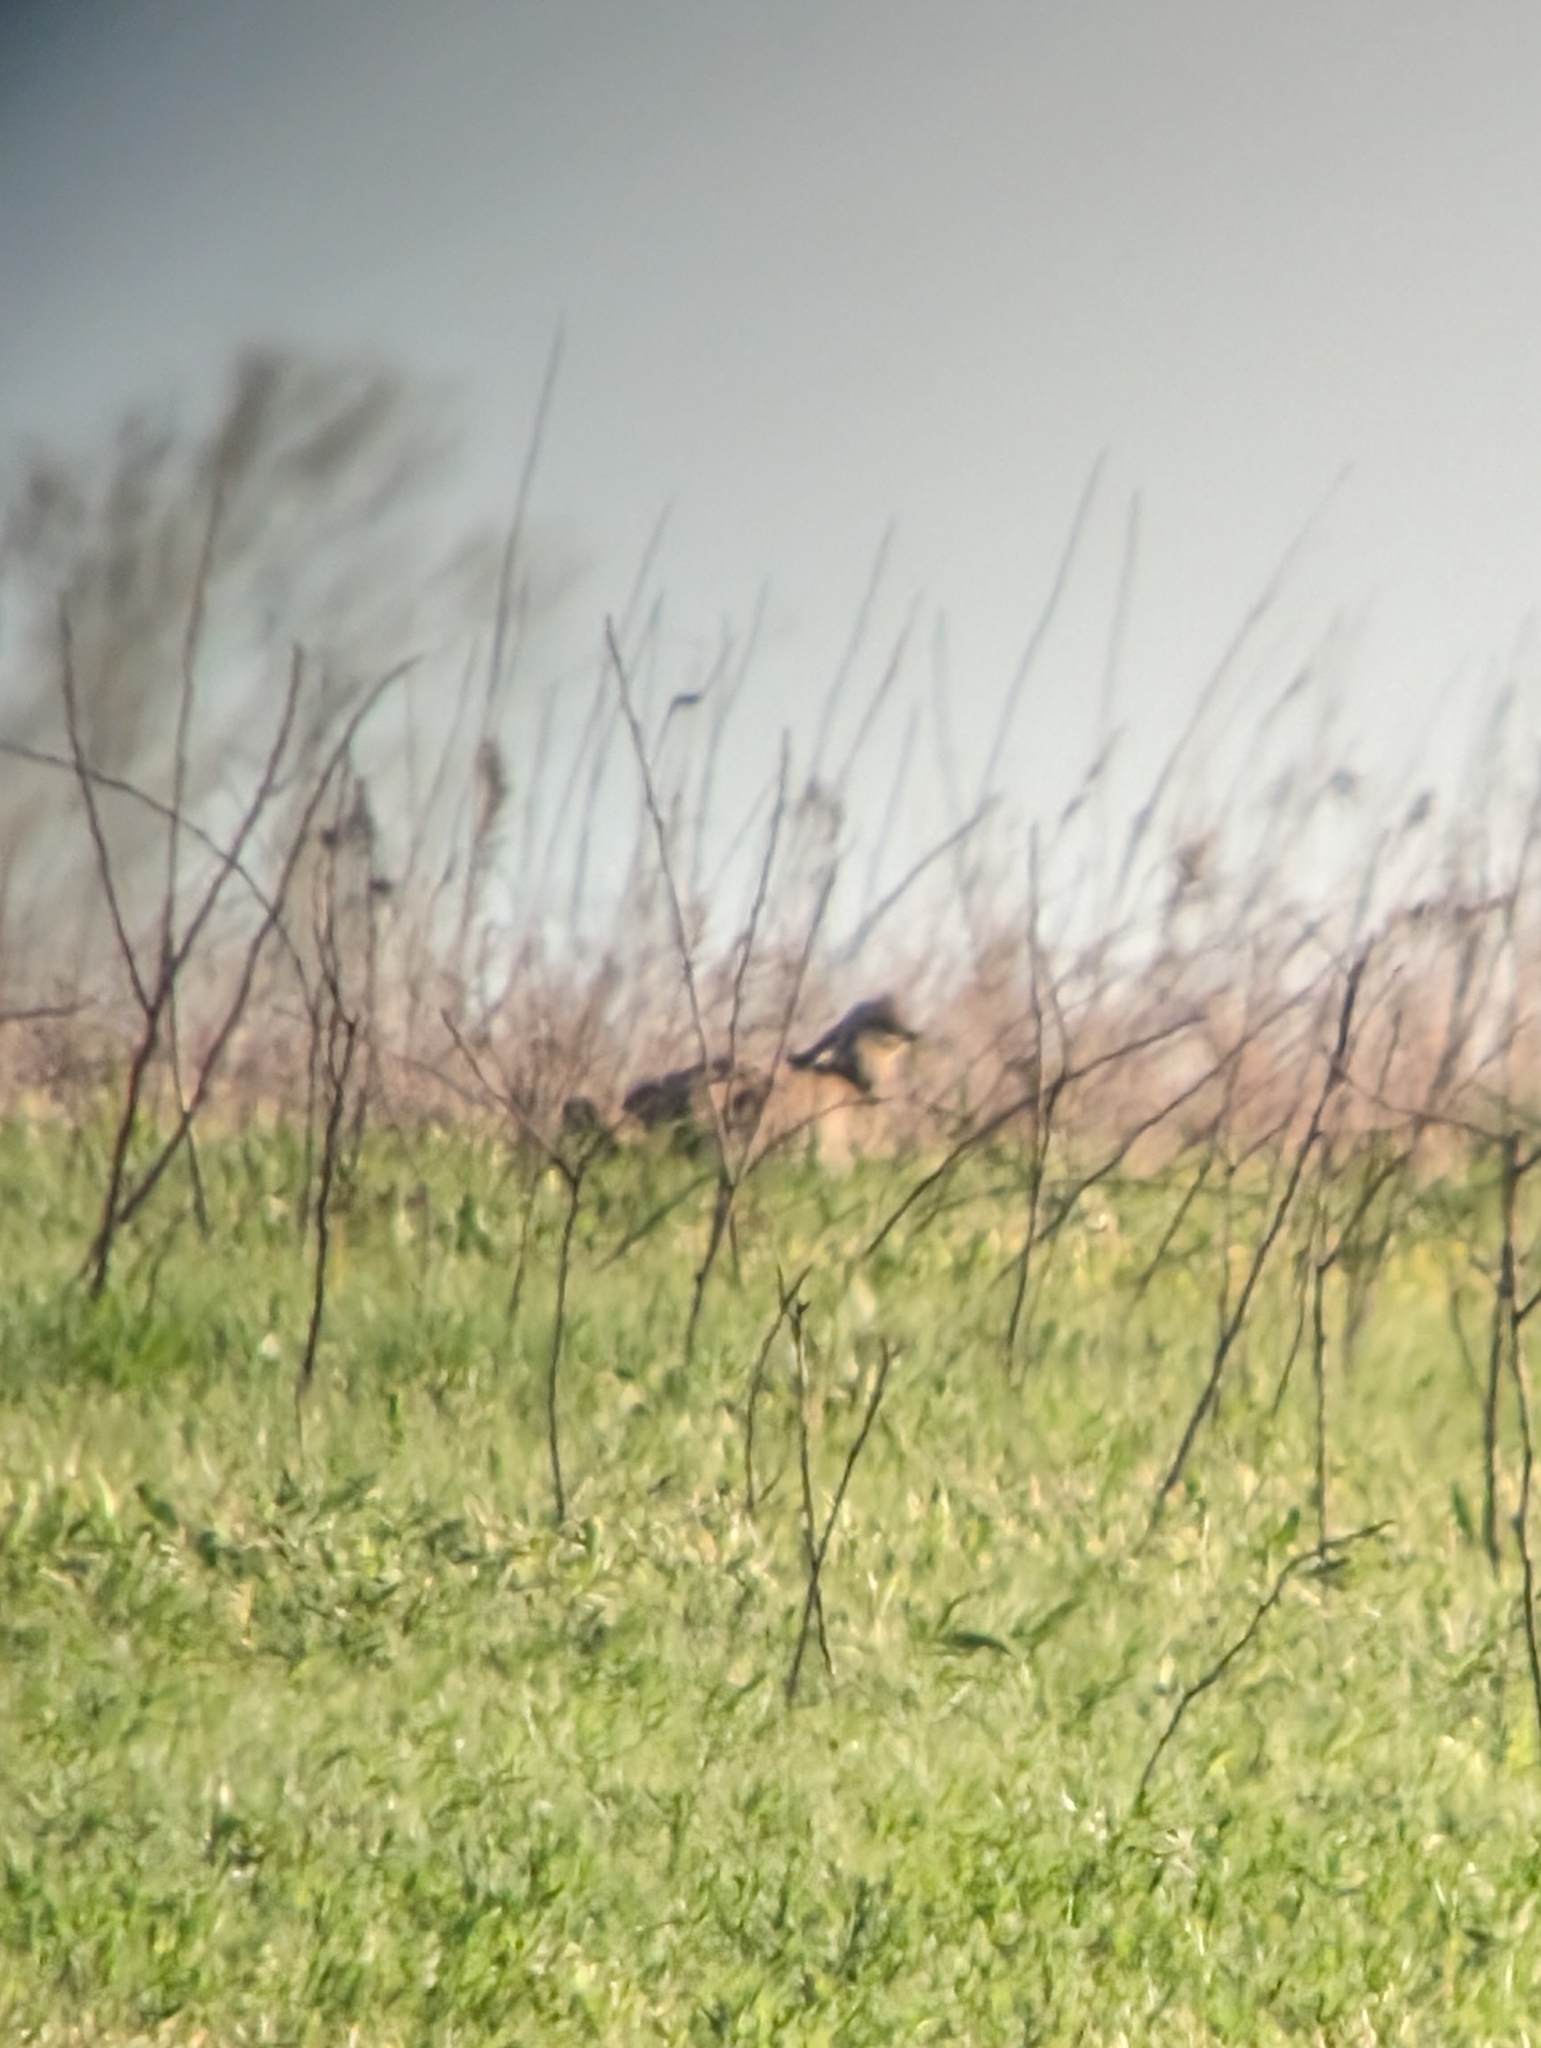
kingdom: Animalia
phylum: Chordata
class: Aves
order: Galliformes
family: Phasianidae
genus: Tympanuchus
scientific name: Tympanuchus cupido
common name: Greater prairie chicken
